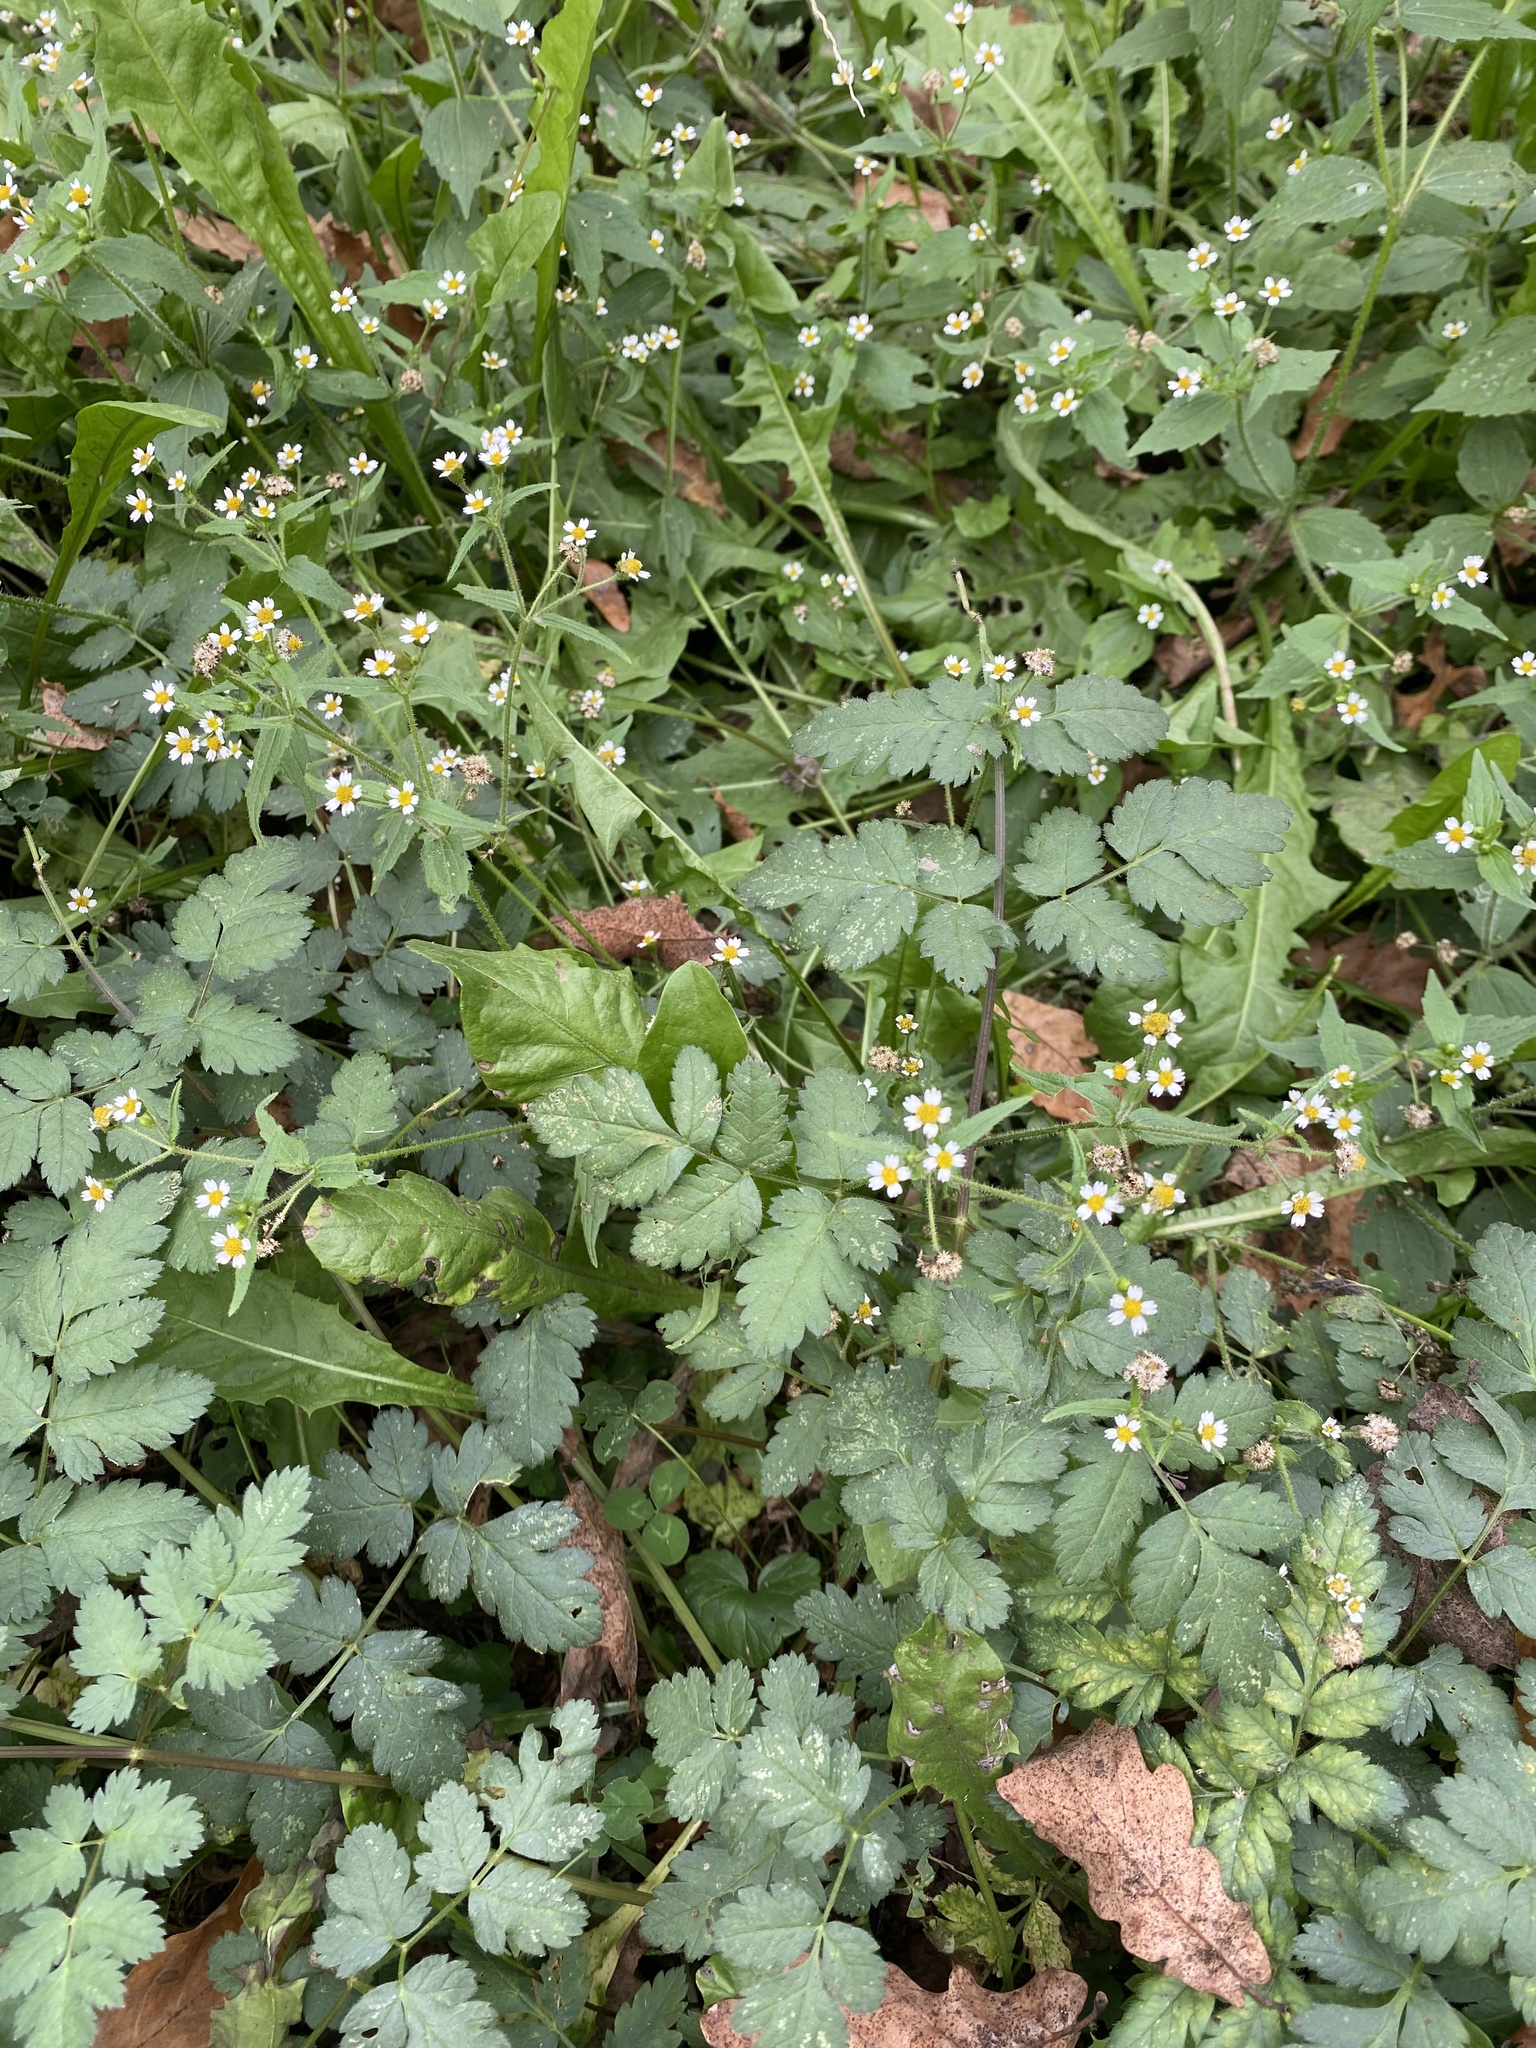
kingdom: Plantae
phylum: Tracheophyta
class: Magnoliopsida
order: Asterales
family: Asteraceae
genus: Galinsoga
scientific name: Galinsoga quadriradiata
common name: Shaggy soldier
